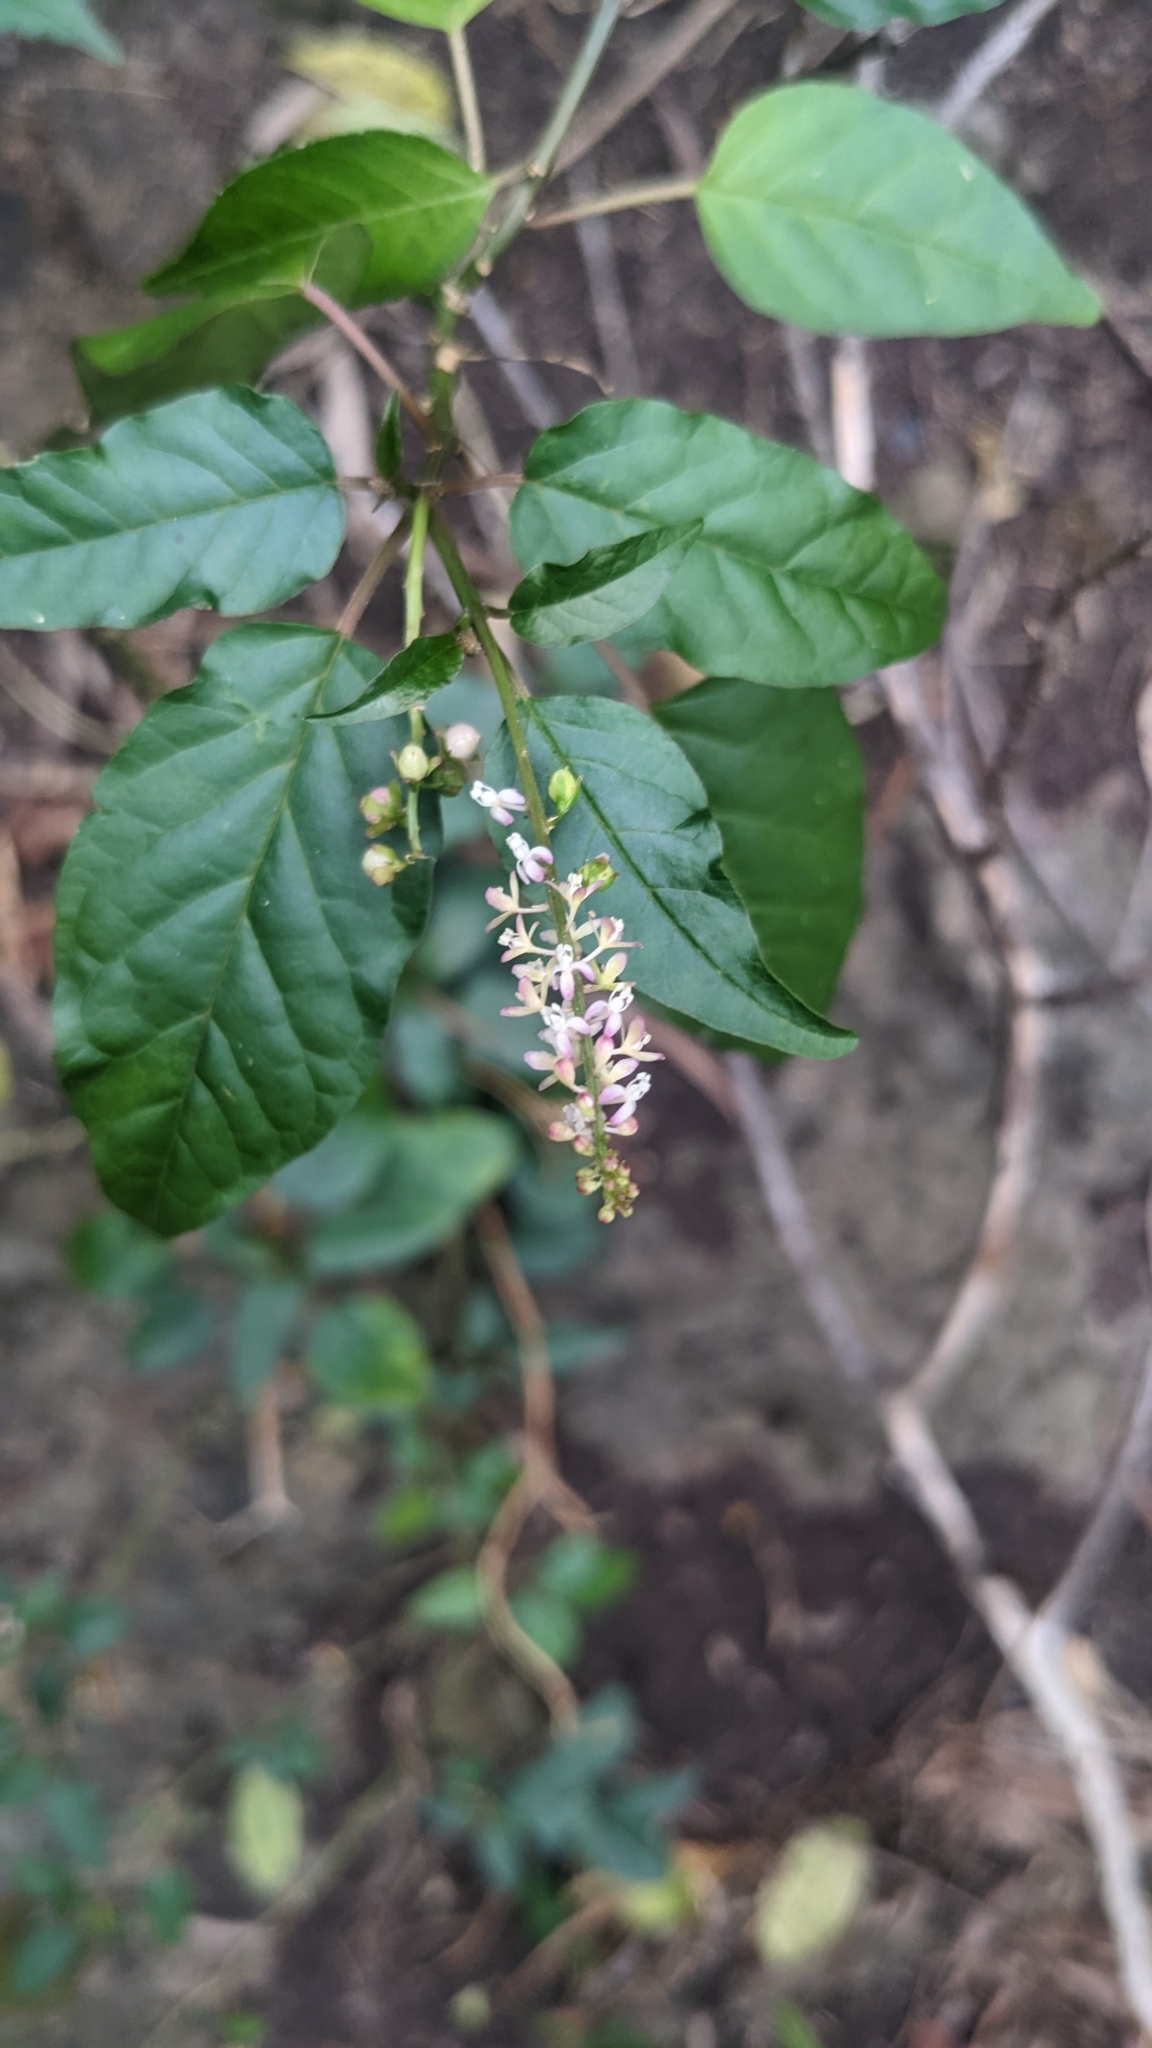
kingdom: Plantae
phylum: Tracheophyta
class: Magnoliopsida
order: Caryophyllales
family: Phytolaccaceae
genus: Rivina
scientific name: Rivina humilis
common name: Rougeplant
